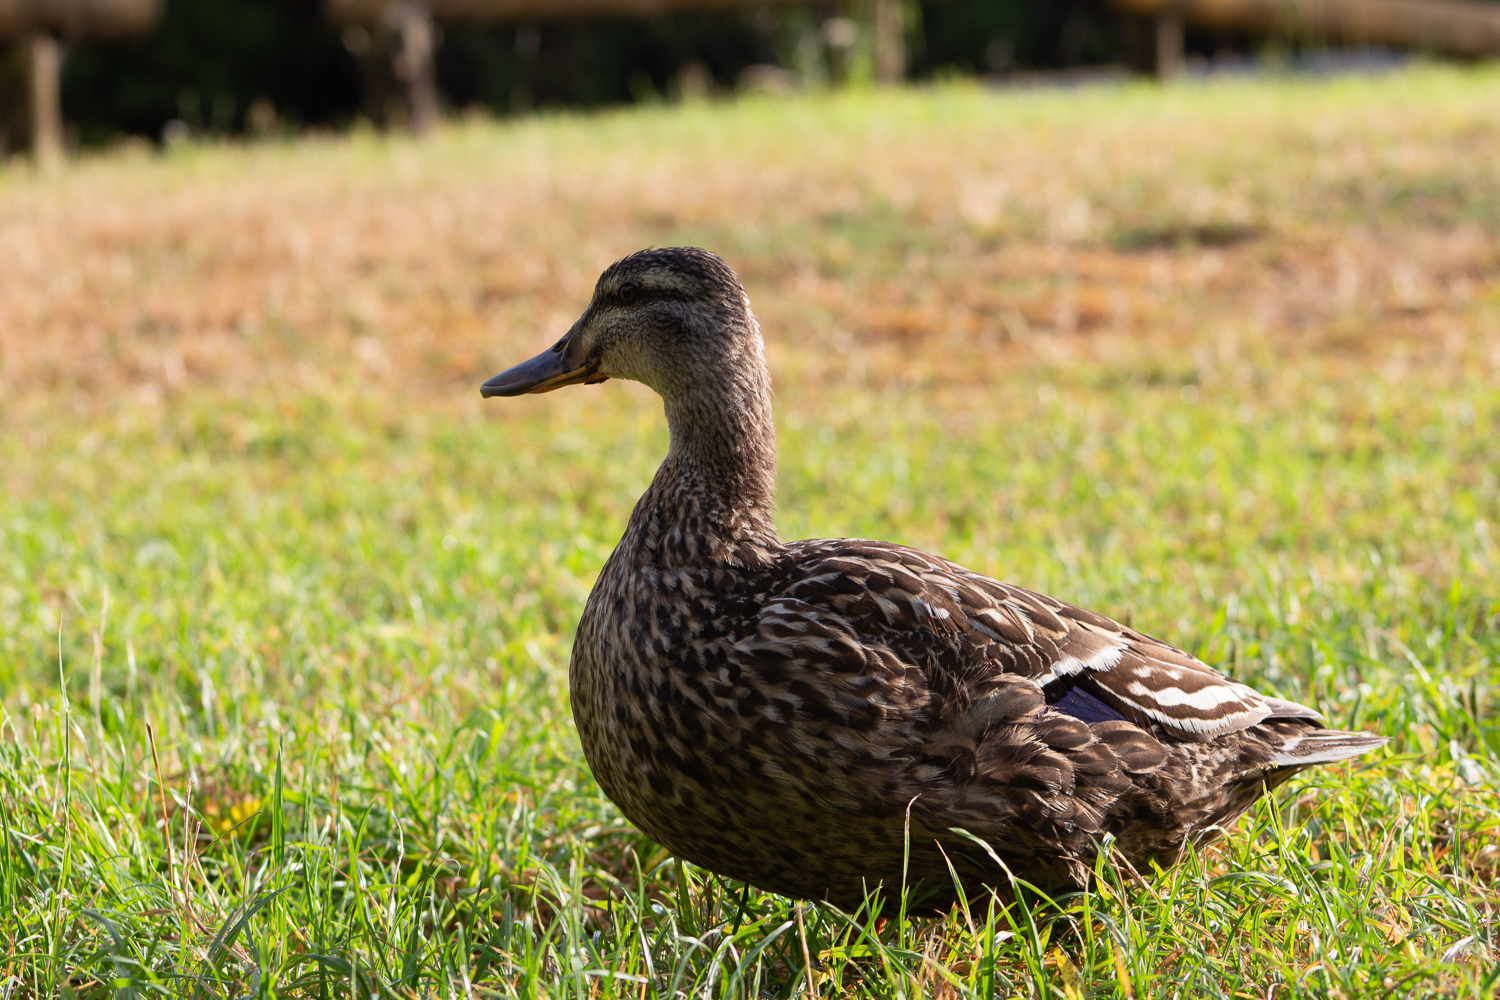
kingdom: Animalia
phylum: Chordata
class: Aves
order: Anseriformes
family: Anatidae
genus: Anas
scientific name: Anas
